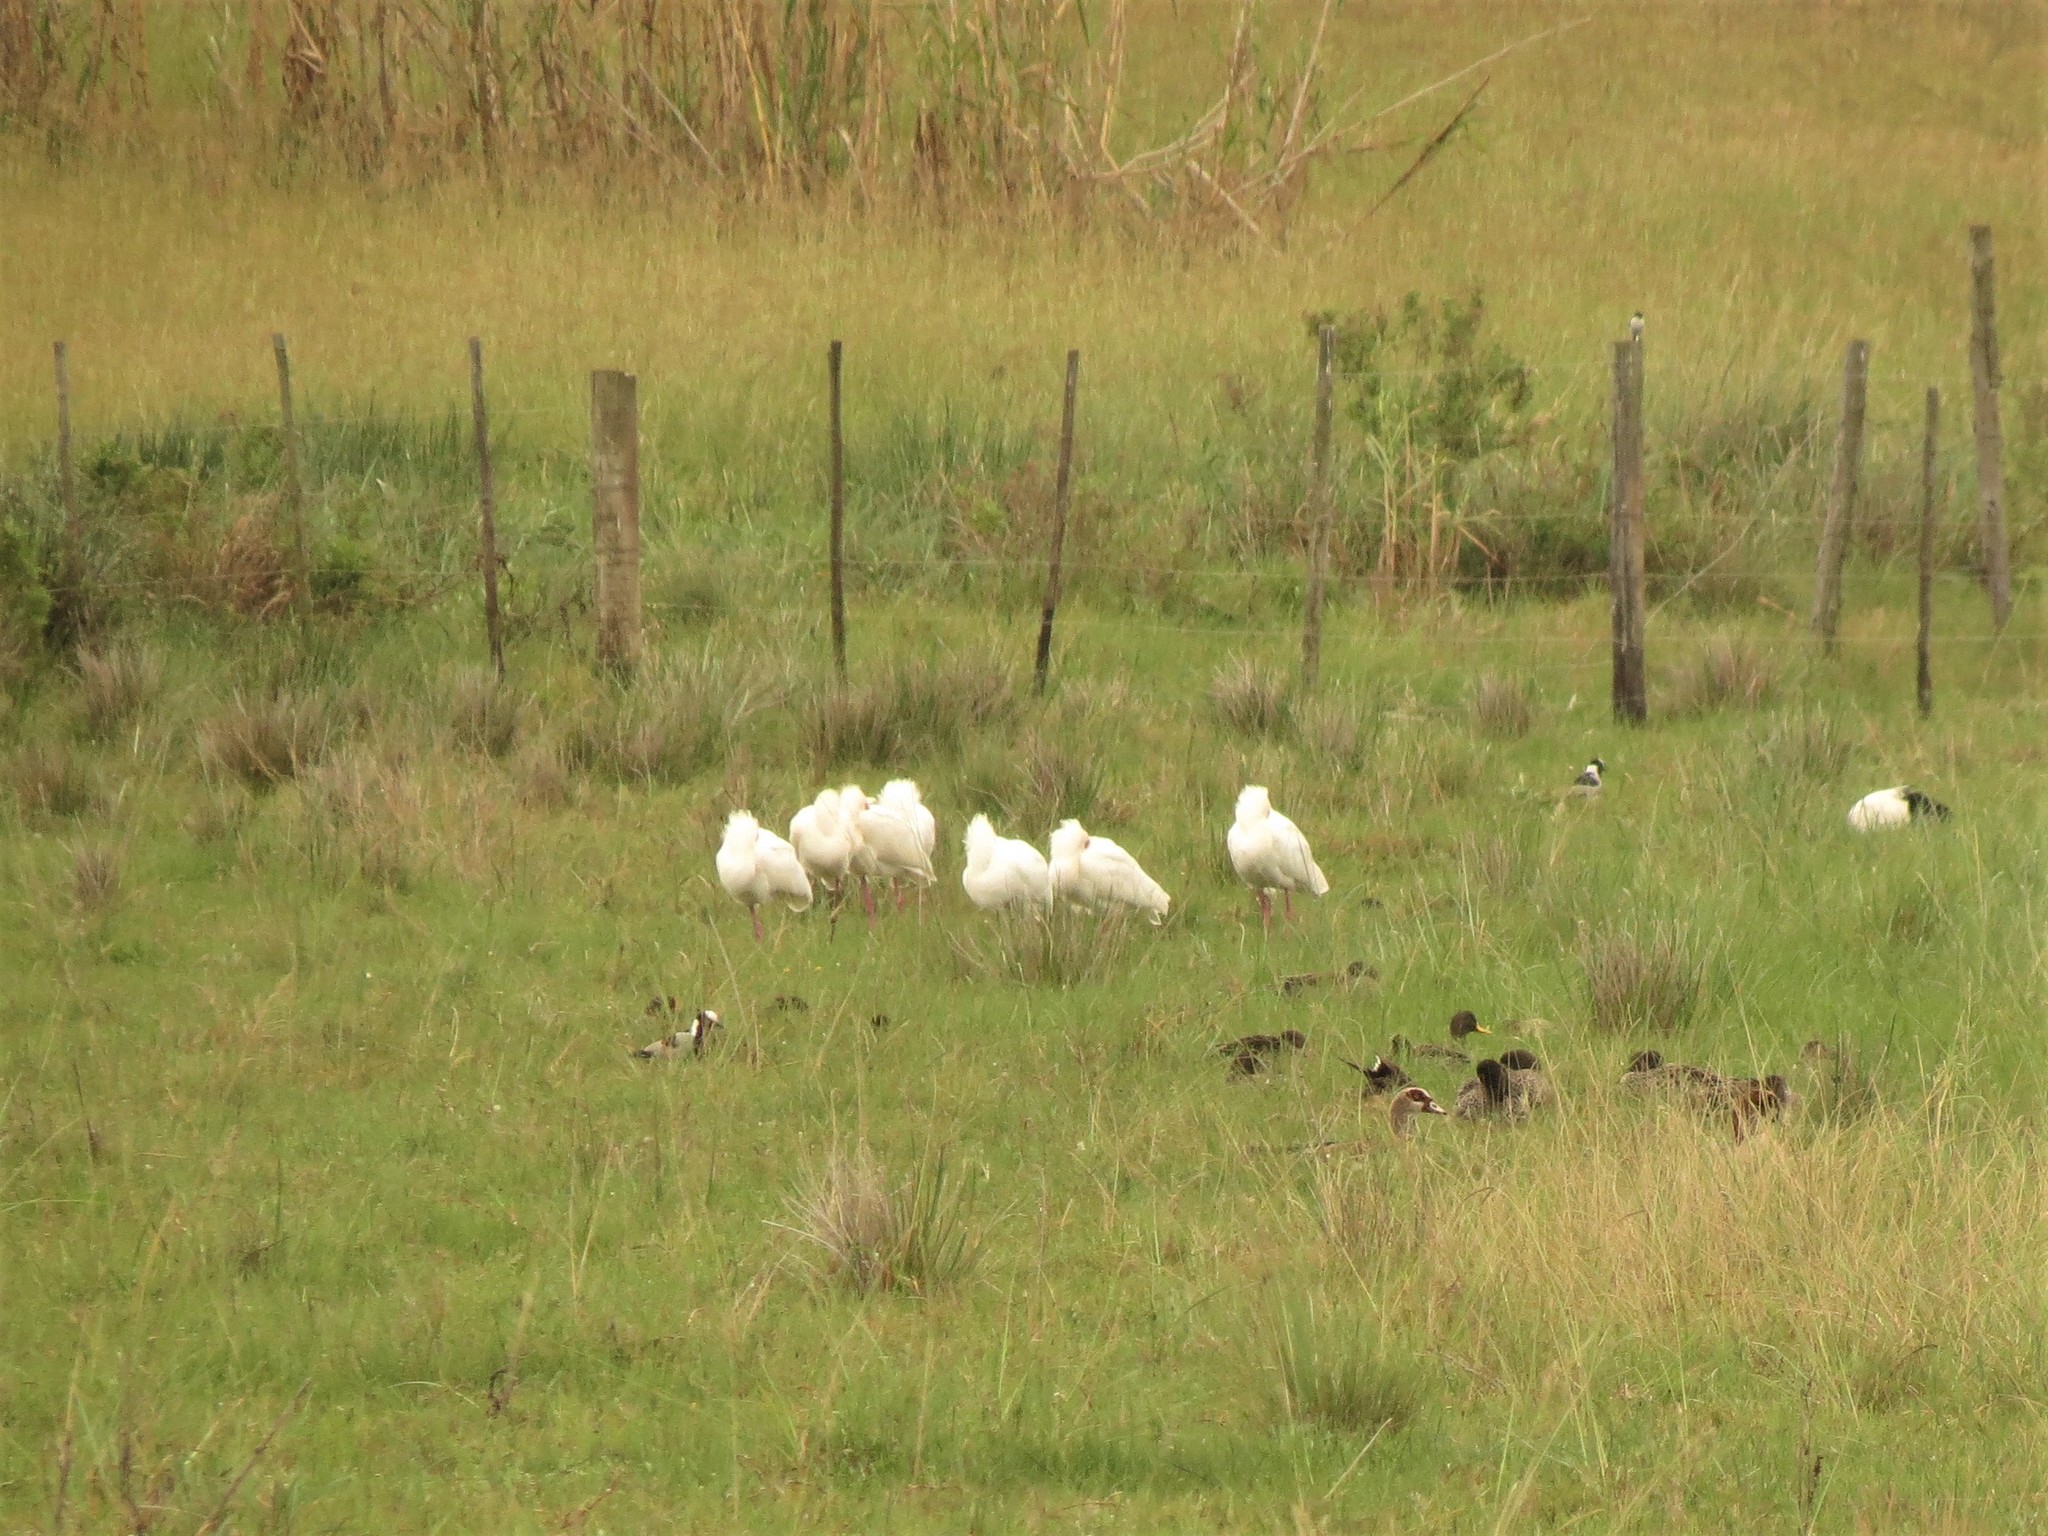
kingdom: Animalia
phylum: Chordata
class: Aves
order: Pelecaniformes
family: Threskiornithidae
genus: Platalea
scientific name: Platalea alba
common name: African spoonbill
